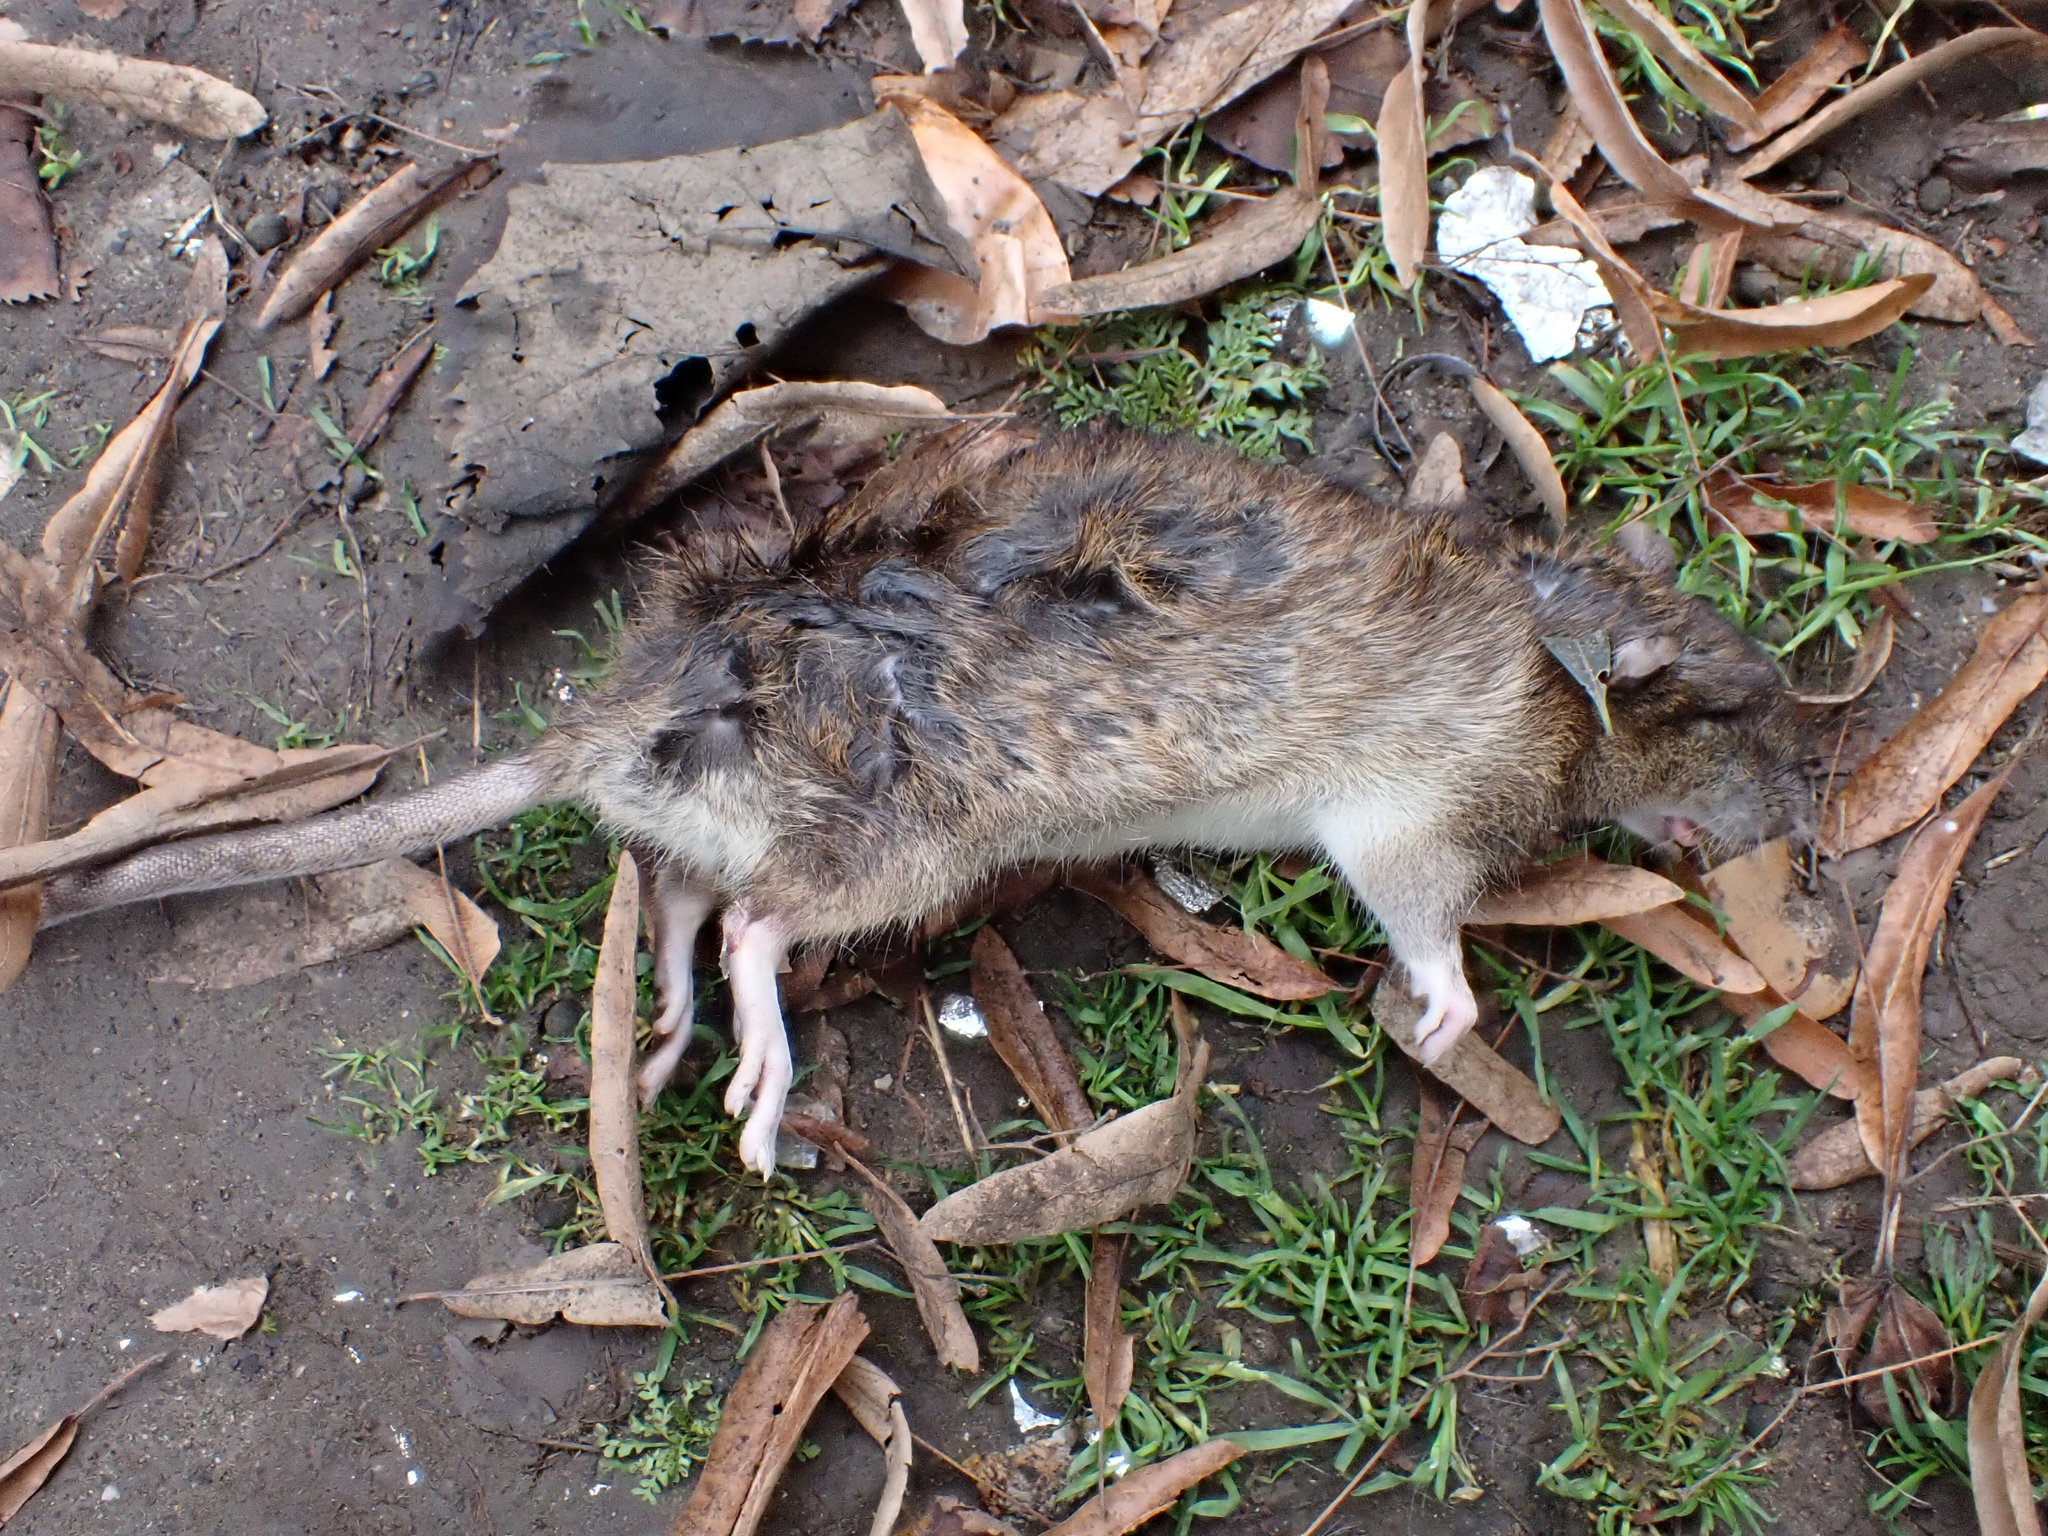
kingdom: Animalia
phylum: Chordata
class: Mammalia
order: Rodentia
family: Muridae
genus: Rattus
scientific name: Rattus norvegicus
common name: Brown rat
